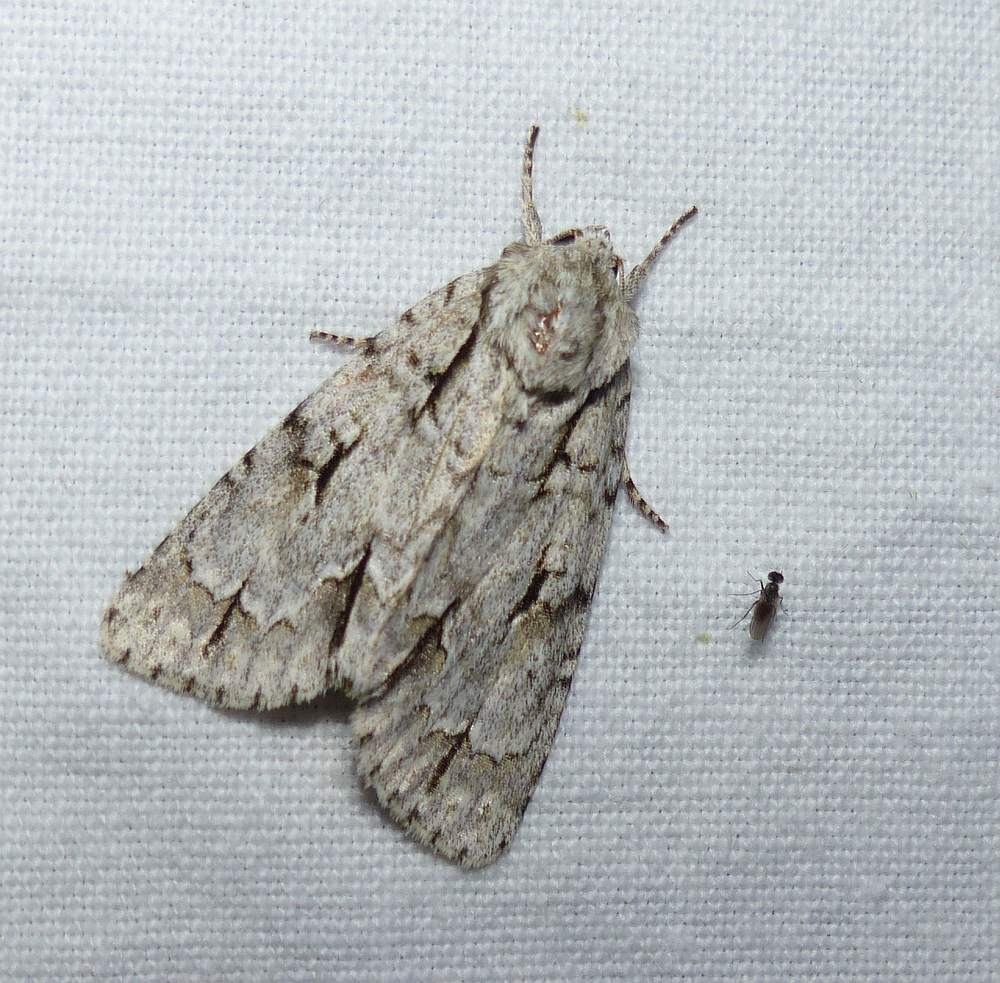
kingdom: Animalia
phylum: Arthropoda
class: Insecta
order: Lepidoptera
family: Noctuidae
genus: Acronicta
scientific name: Acronicta hasta
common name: Cherry dagger
